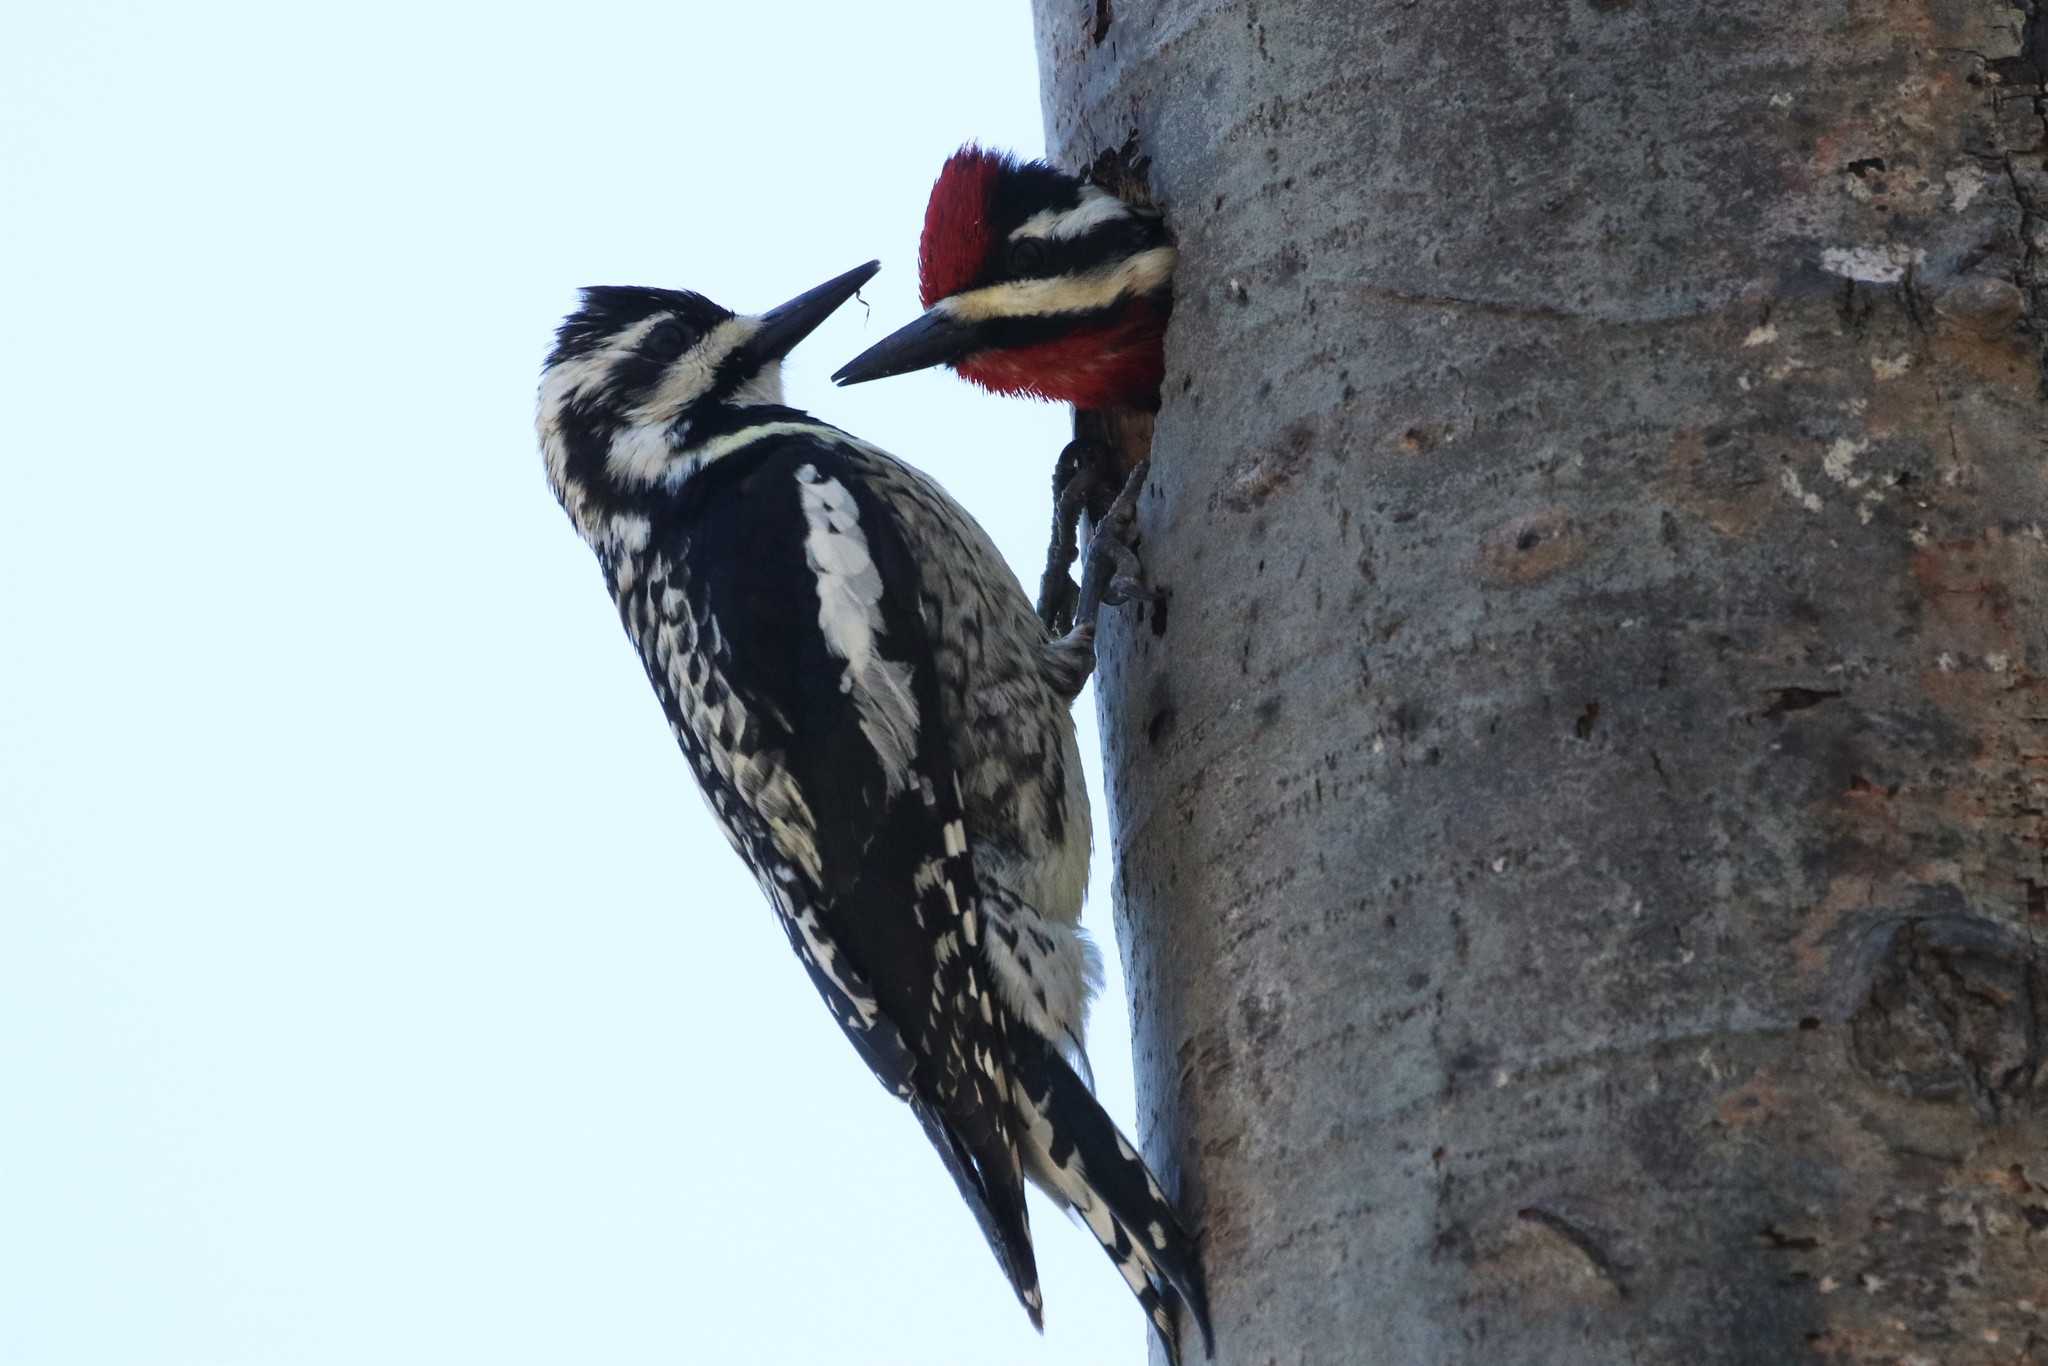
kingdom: Animalia
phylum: Chordata
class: Aves
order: Piciformes
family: Picidae
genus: Sphyrapicus
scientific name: Sphyrapicus varius
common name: Yellow-bellied sapsucker
